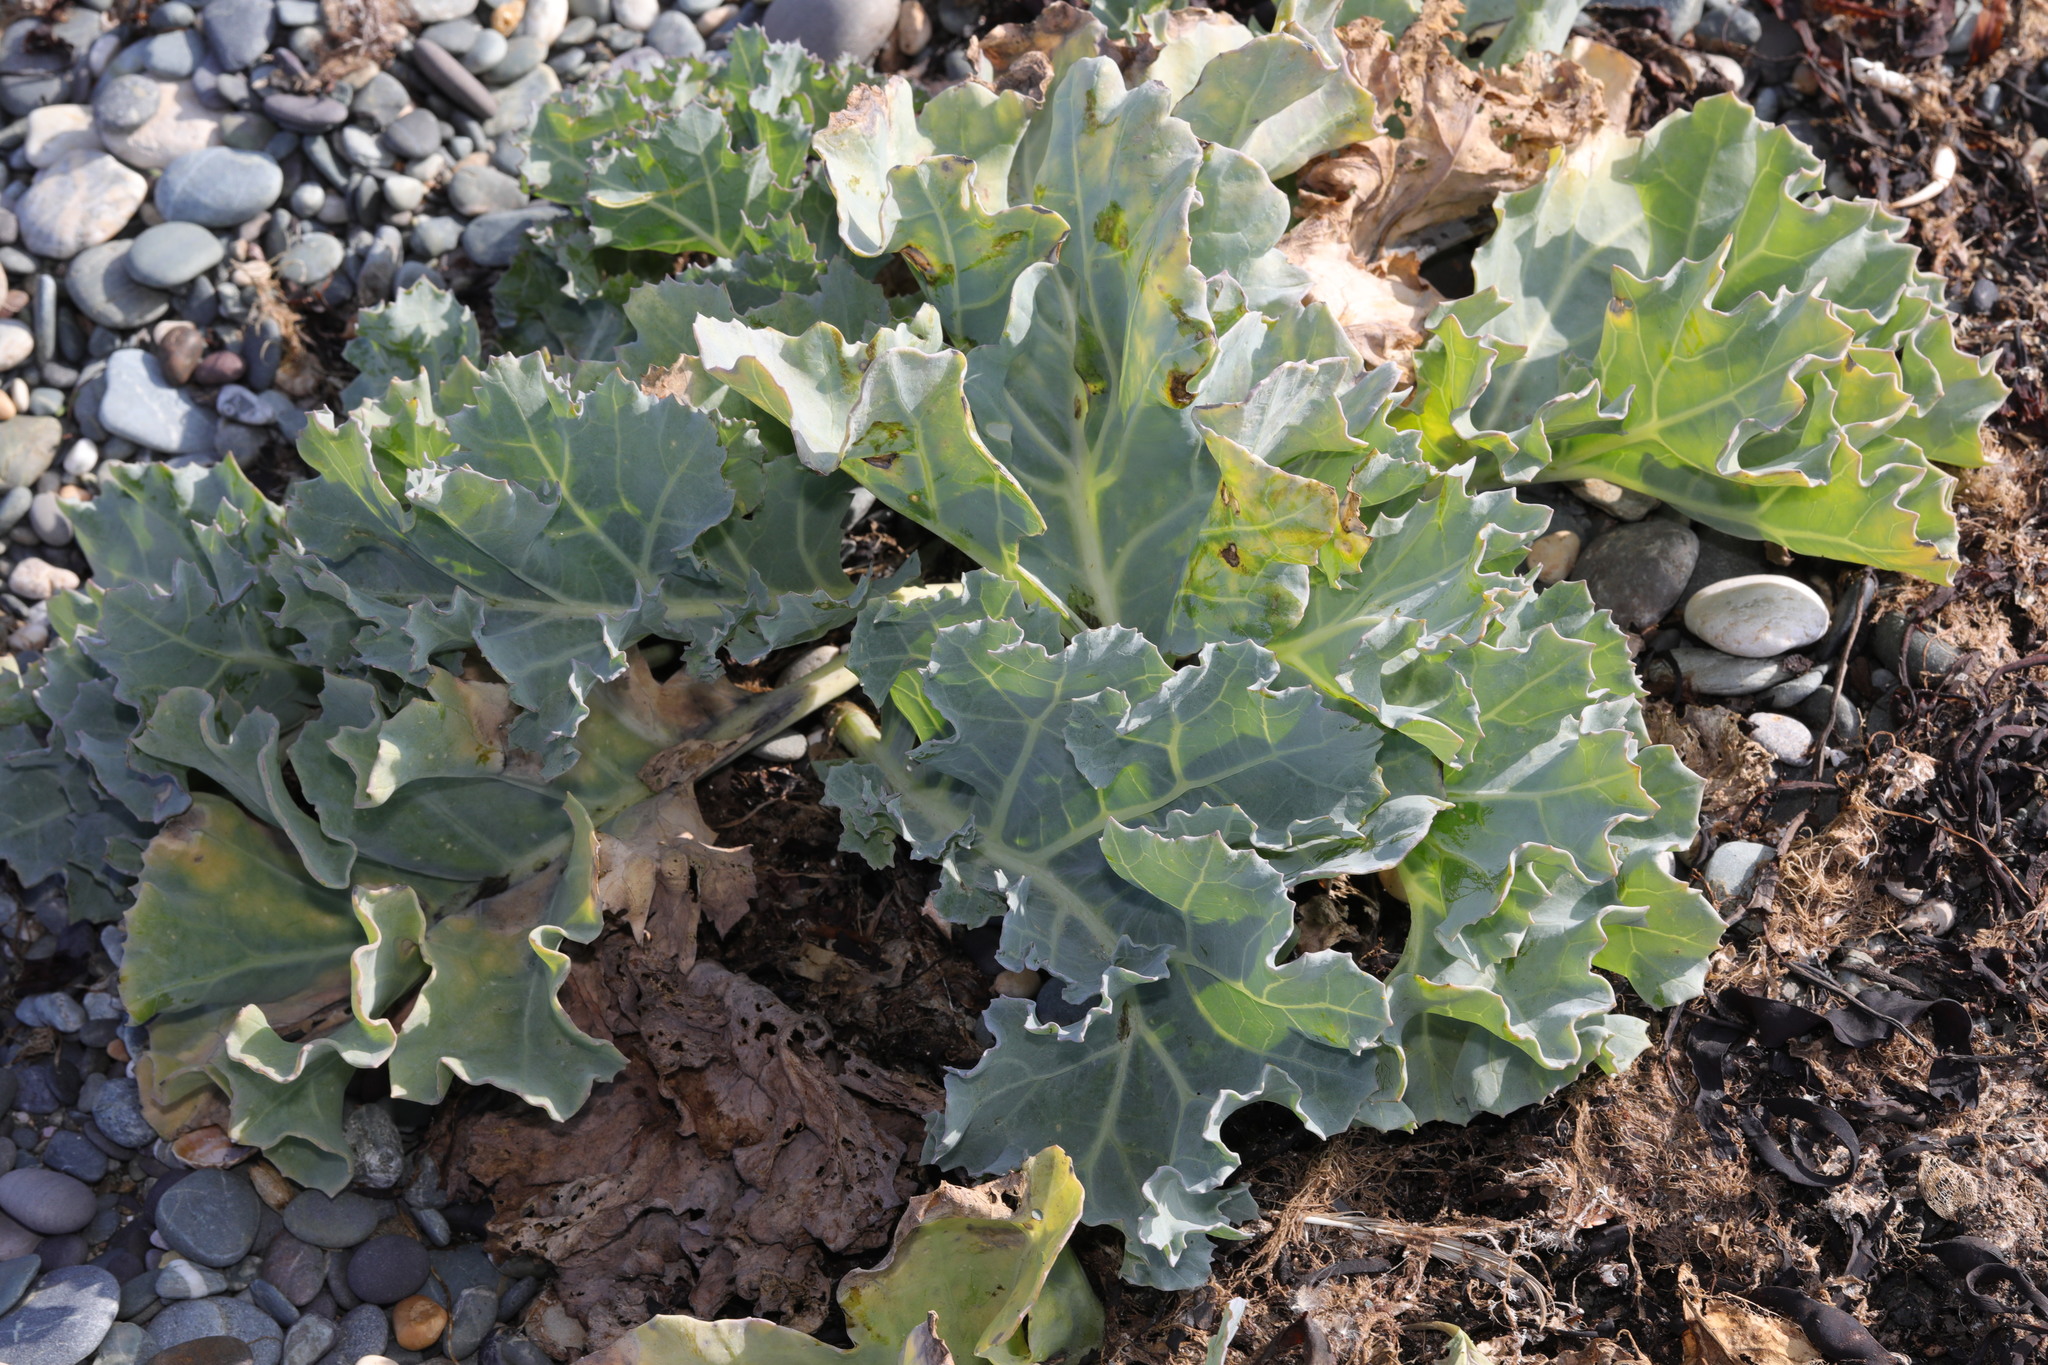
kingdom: Plantae
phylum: Tracheophyta
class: Magnoliopsida
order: Brassicales
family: Brassicaceae
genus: Crambe
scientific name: Crambe maritima
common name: Sea-kale
